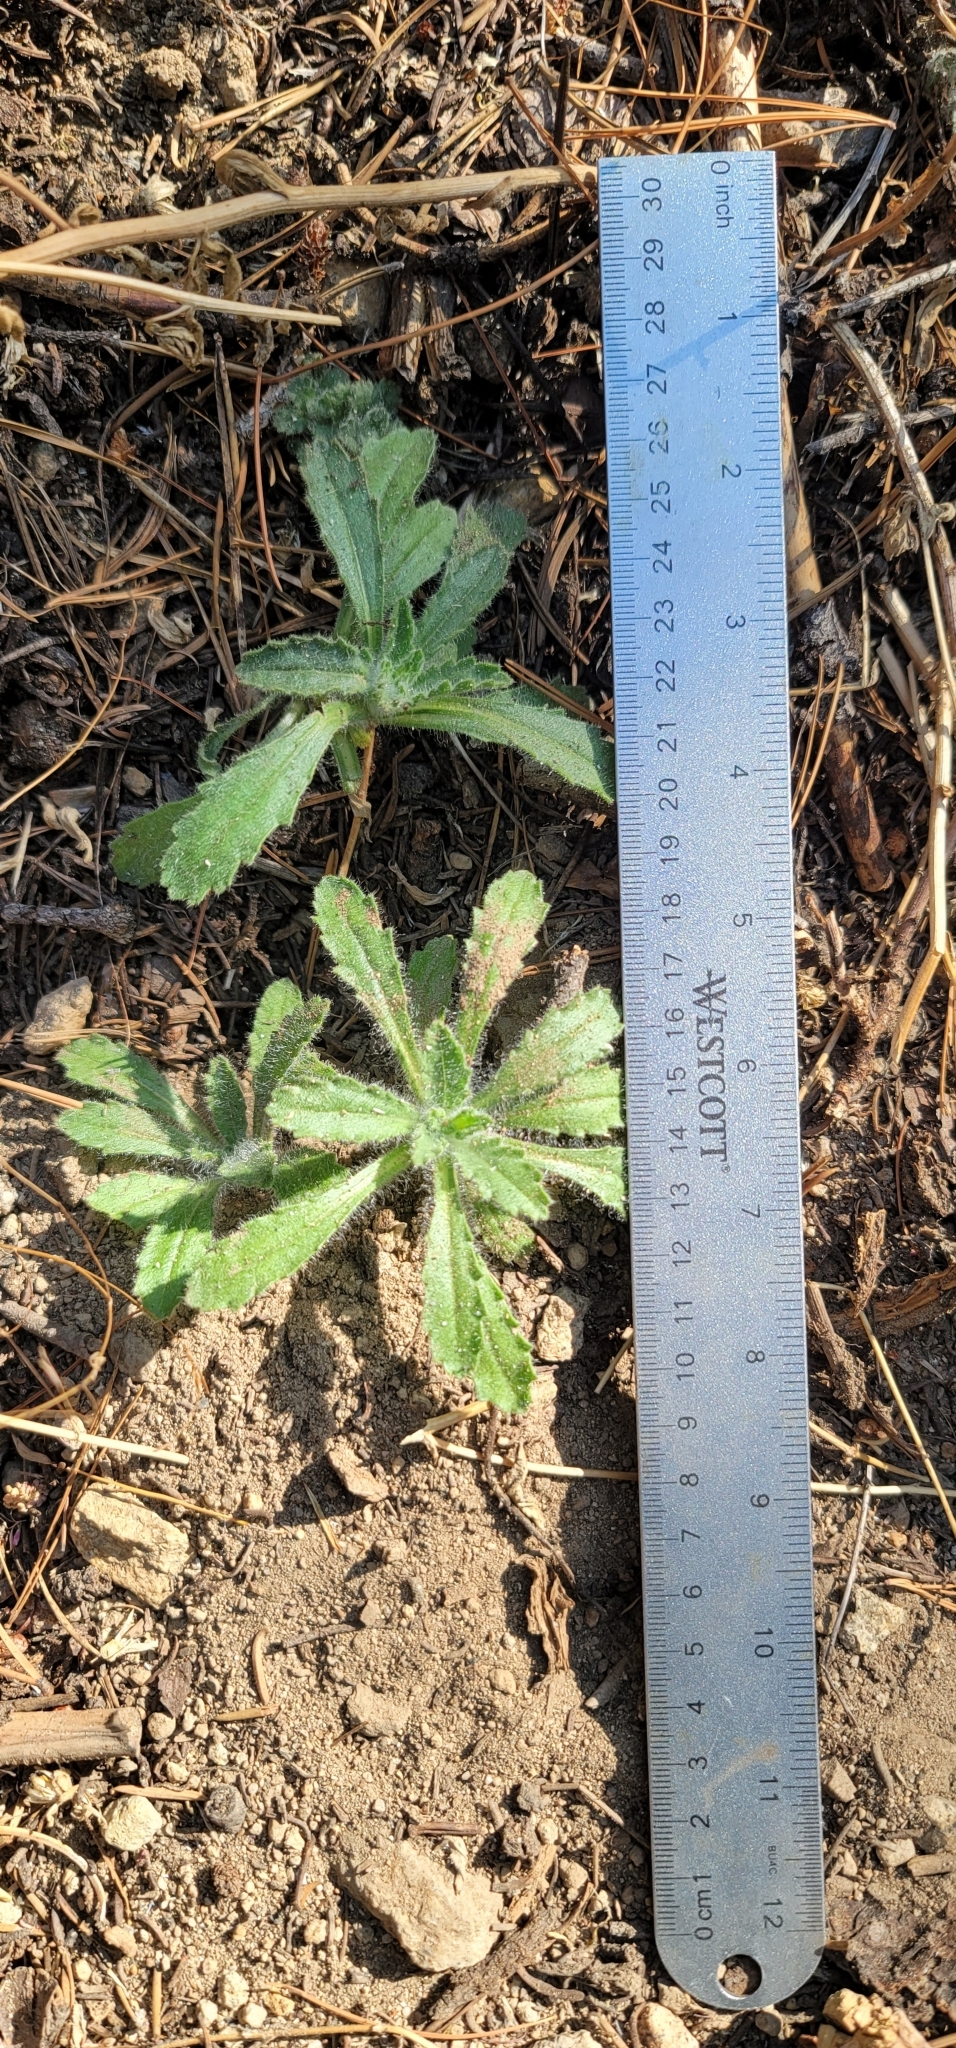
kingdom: Plantae
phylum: Tracheophyta
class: Magnoliopsida
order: Asterales
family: Asteraceae
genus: Hulsea
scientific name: Hulsea brevifolia
